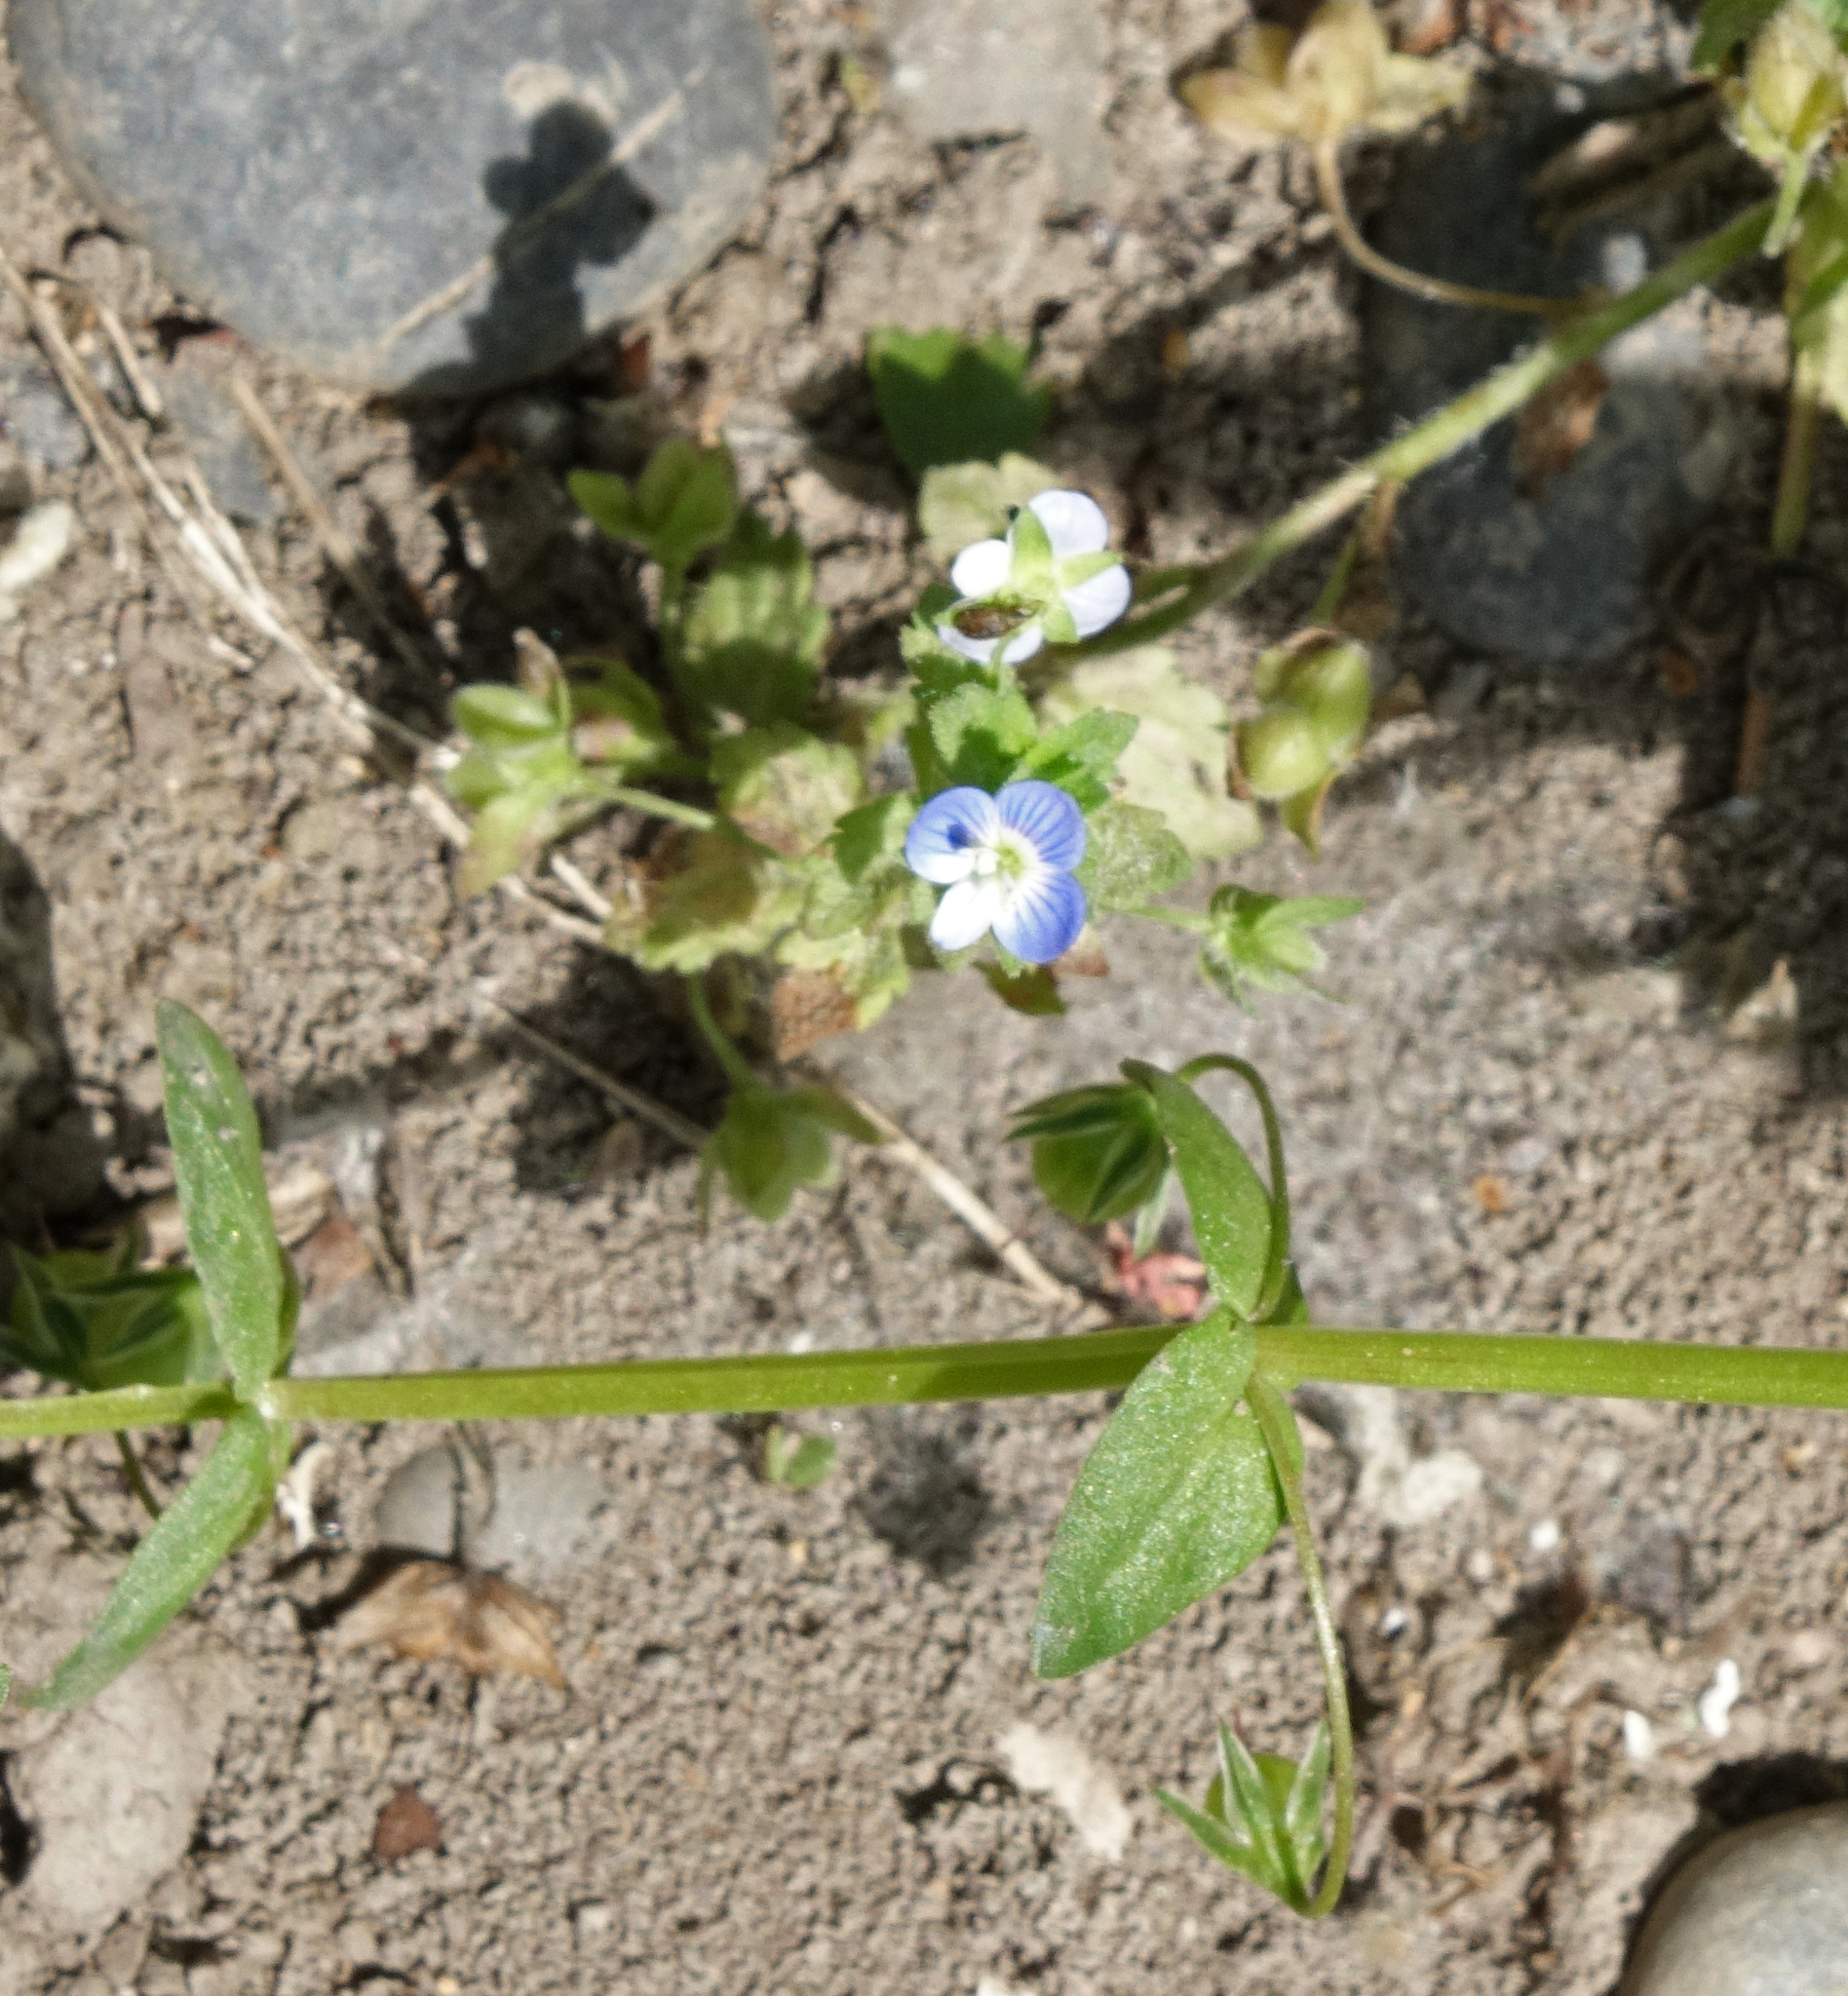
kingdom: Plantae
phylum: Tracheophyta
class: Magnoliopsida
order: Lamiales
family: Plantaginaceae
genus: Veronica
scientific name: Veronica persica
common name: Common field-speedwell
